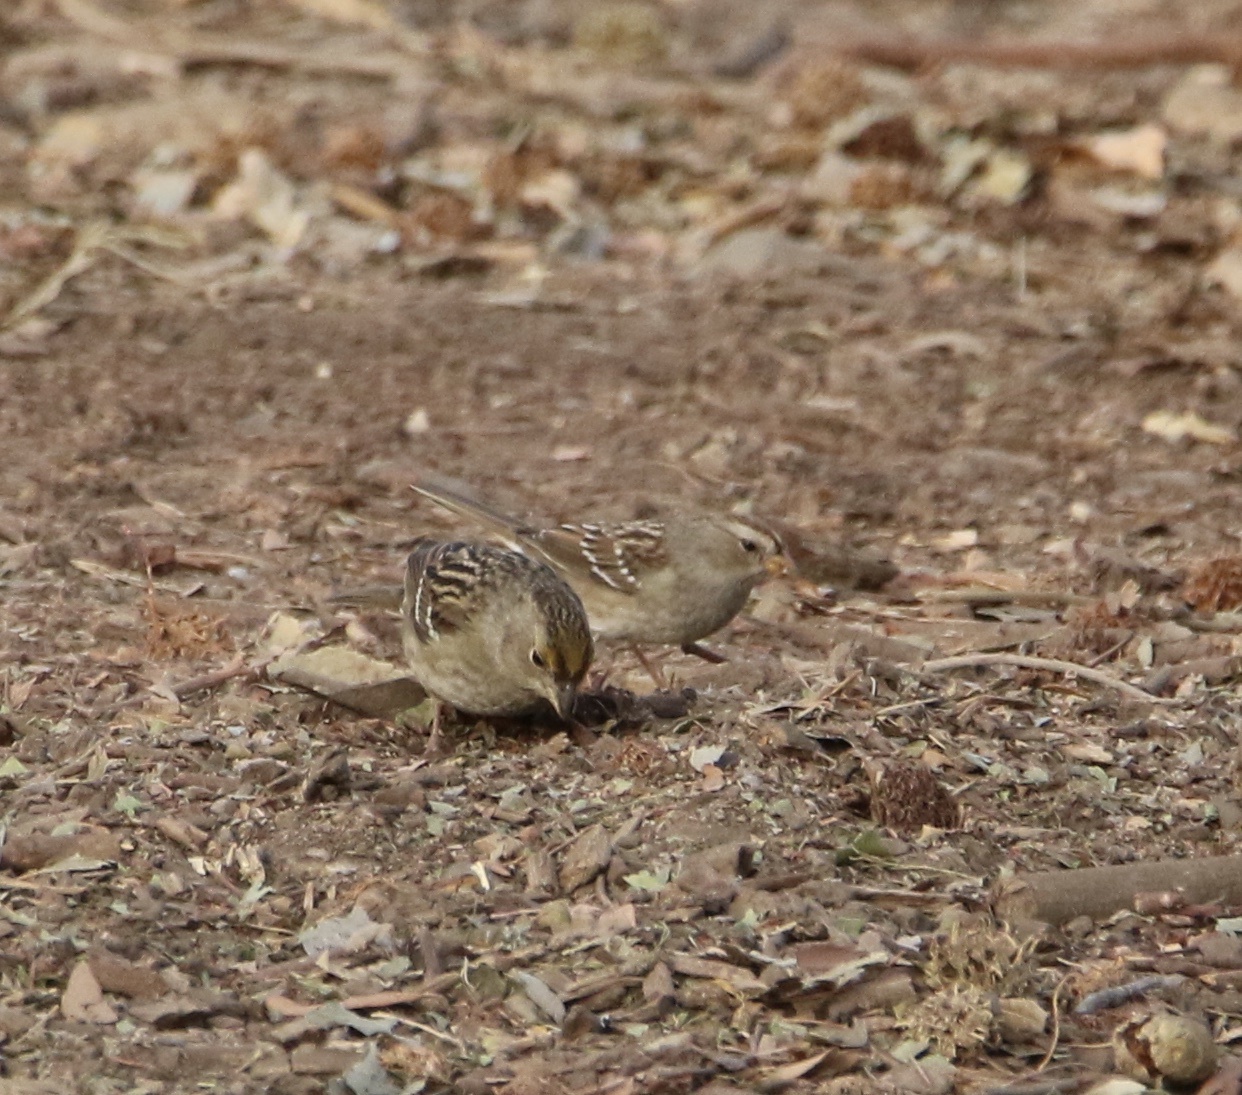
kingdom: Animalia
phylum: Chordata
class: Aves
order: Passeriformes
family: Passerellidae
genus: Zonotrichia
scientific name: Zonotrichia atricapilla
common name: Golden-crowned sparrow
